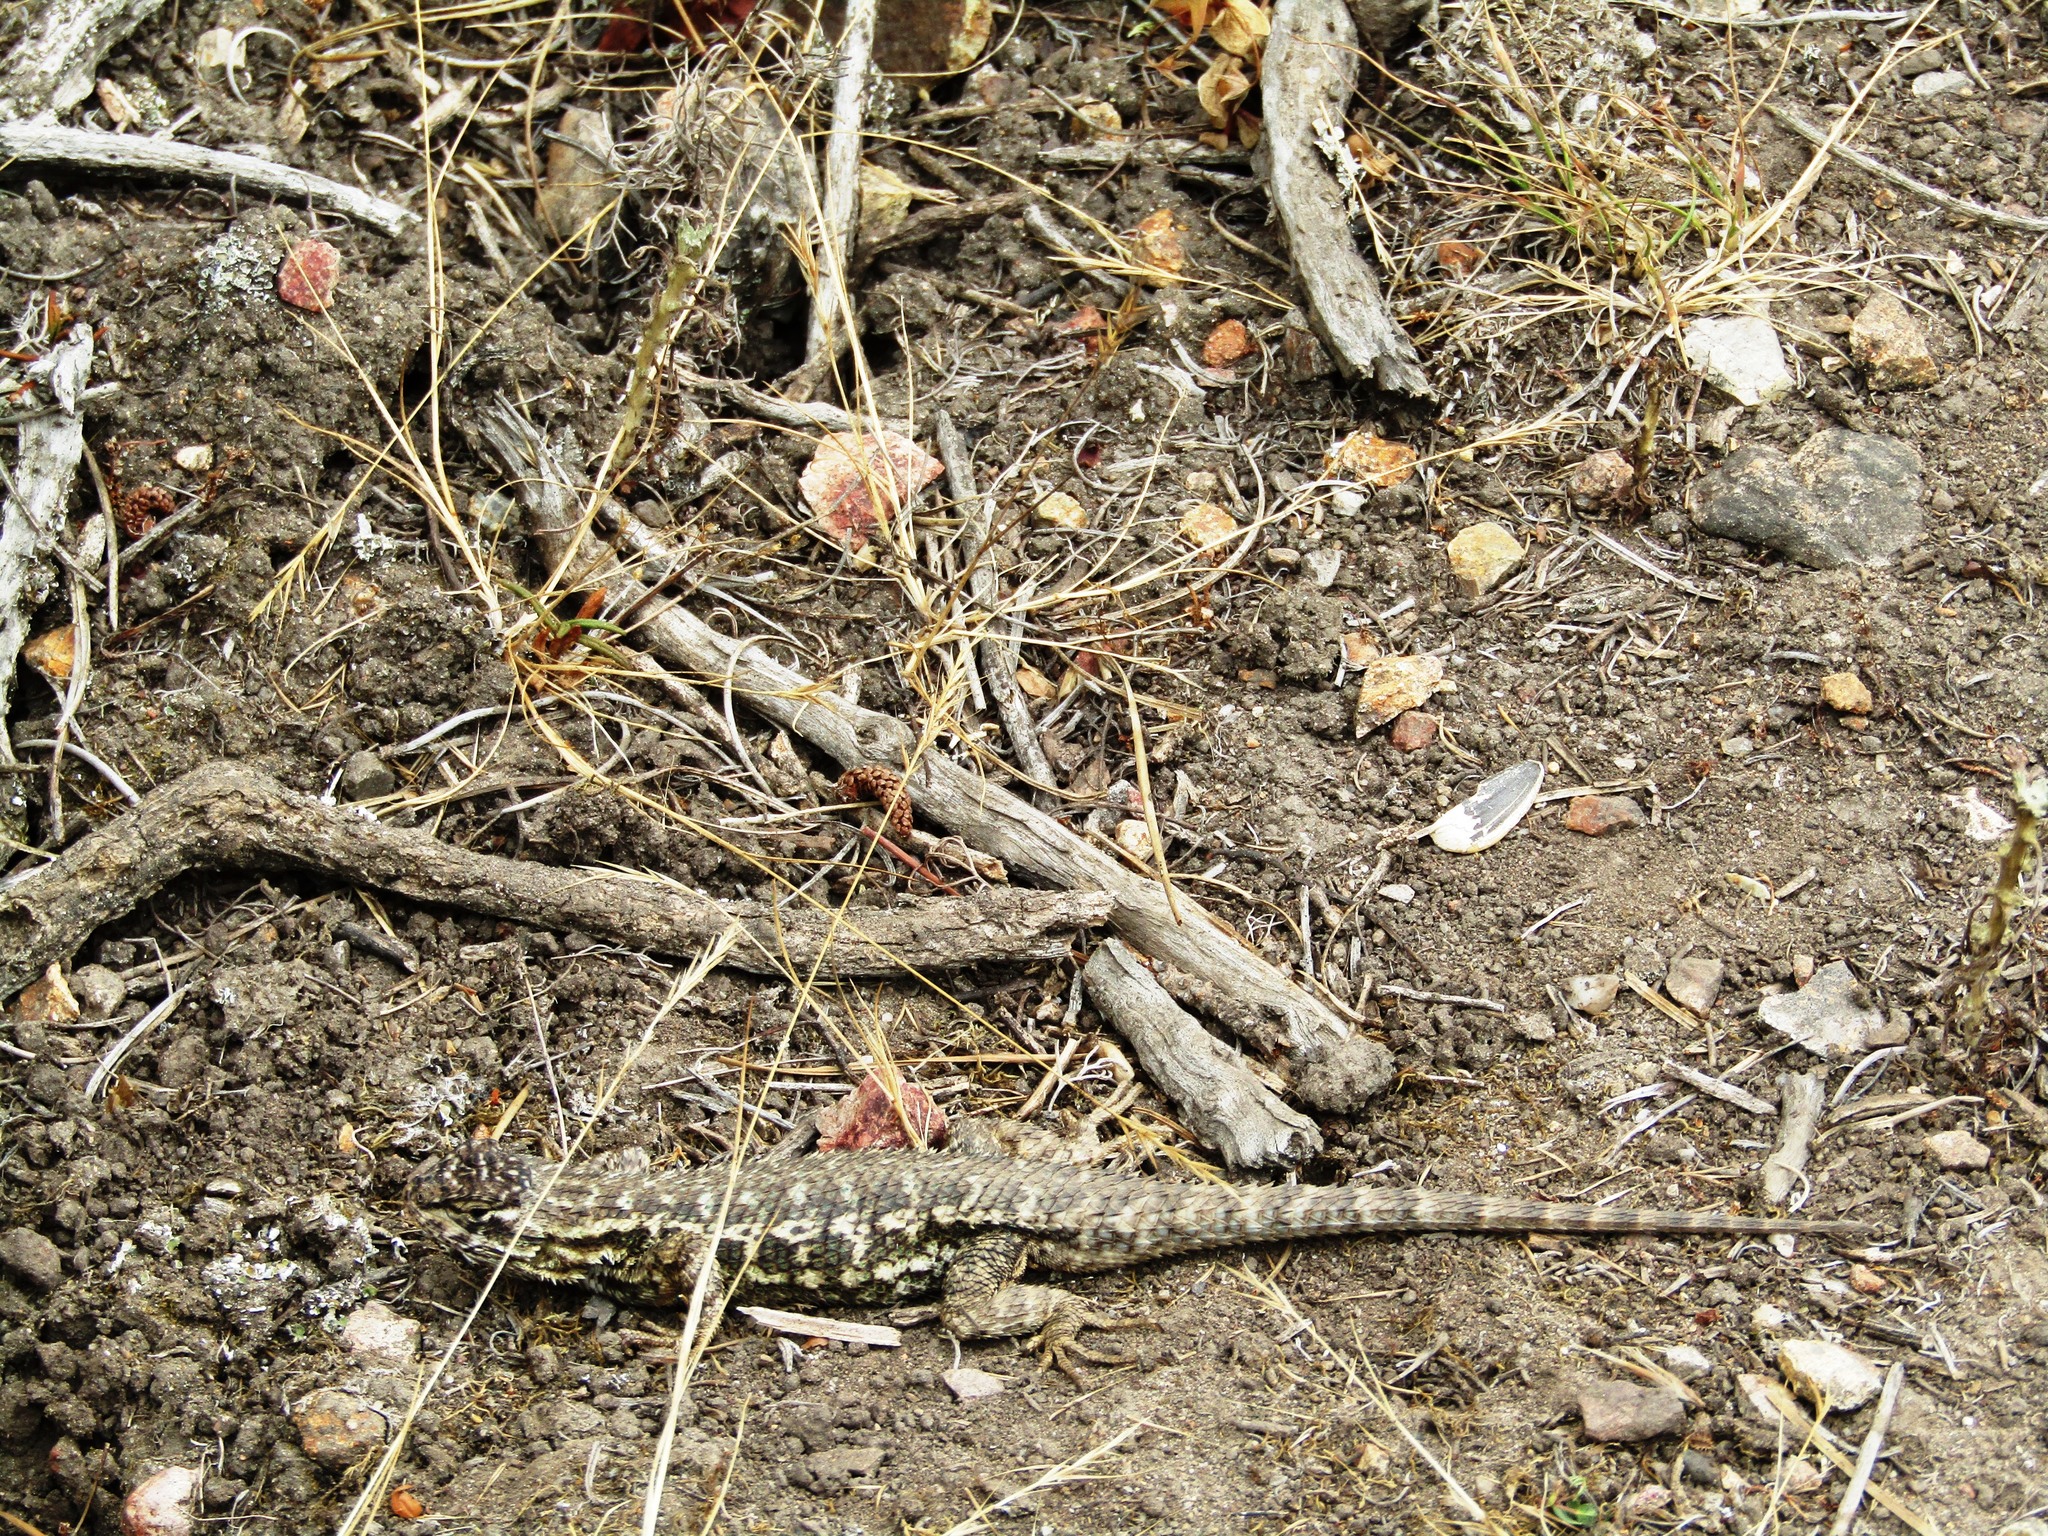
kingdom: Animalia
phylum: Chordata
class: Squamata
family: Phrynosomatidae
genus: Sceloporus
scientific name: Sceloporus occidentalis
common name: Western fence lizard
